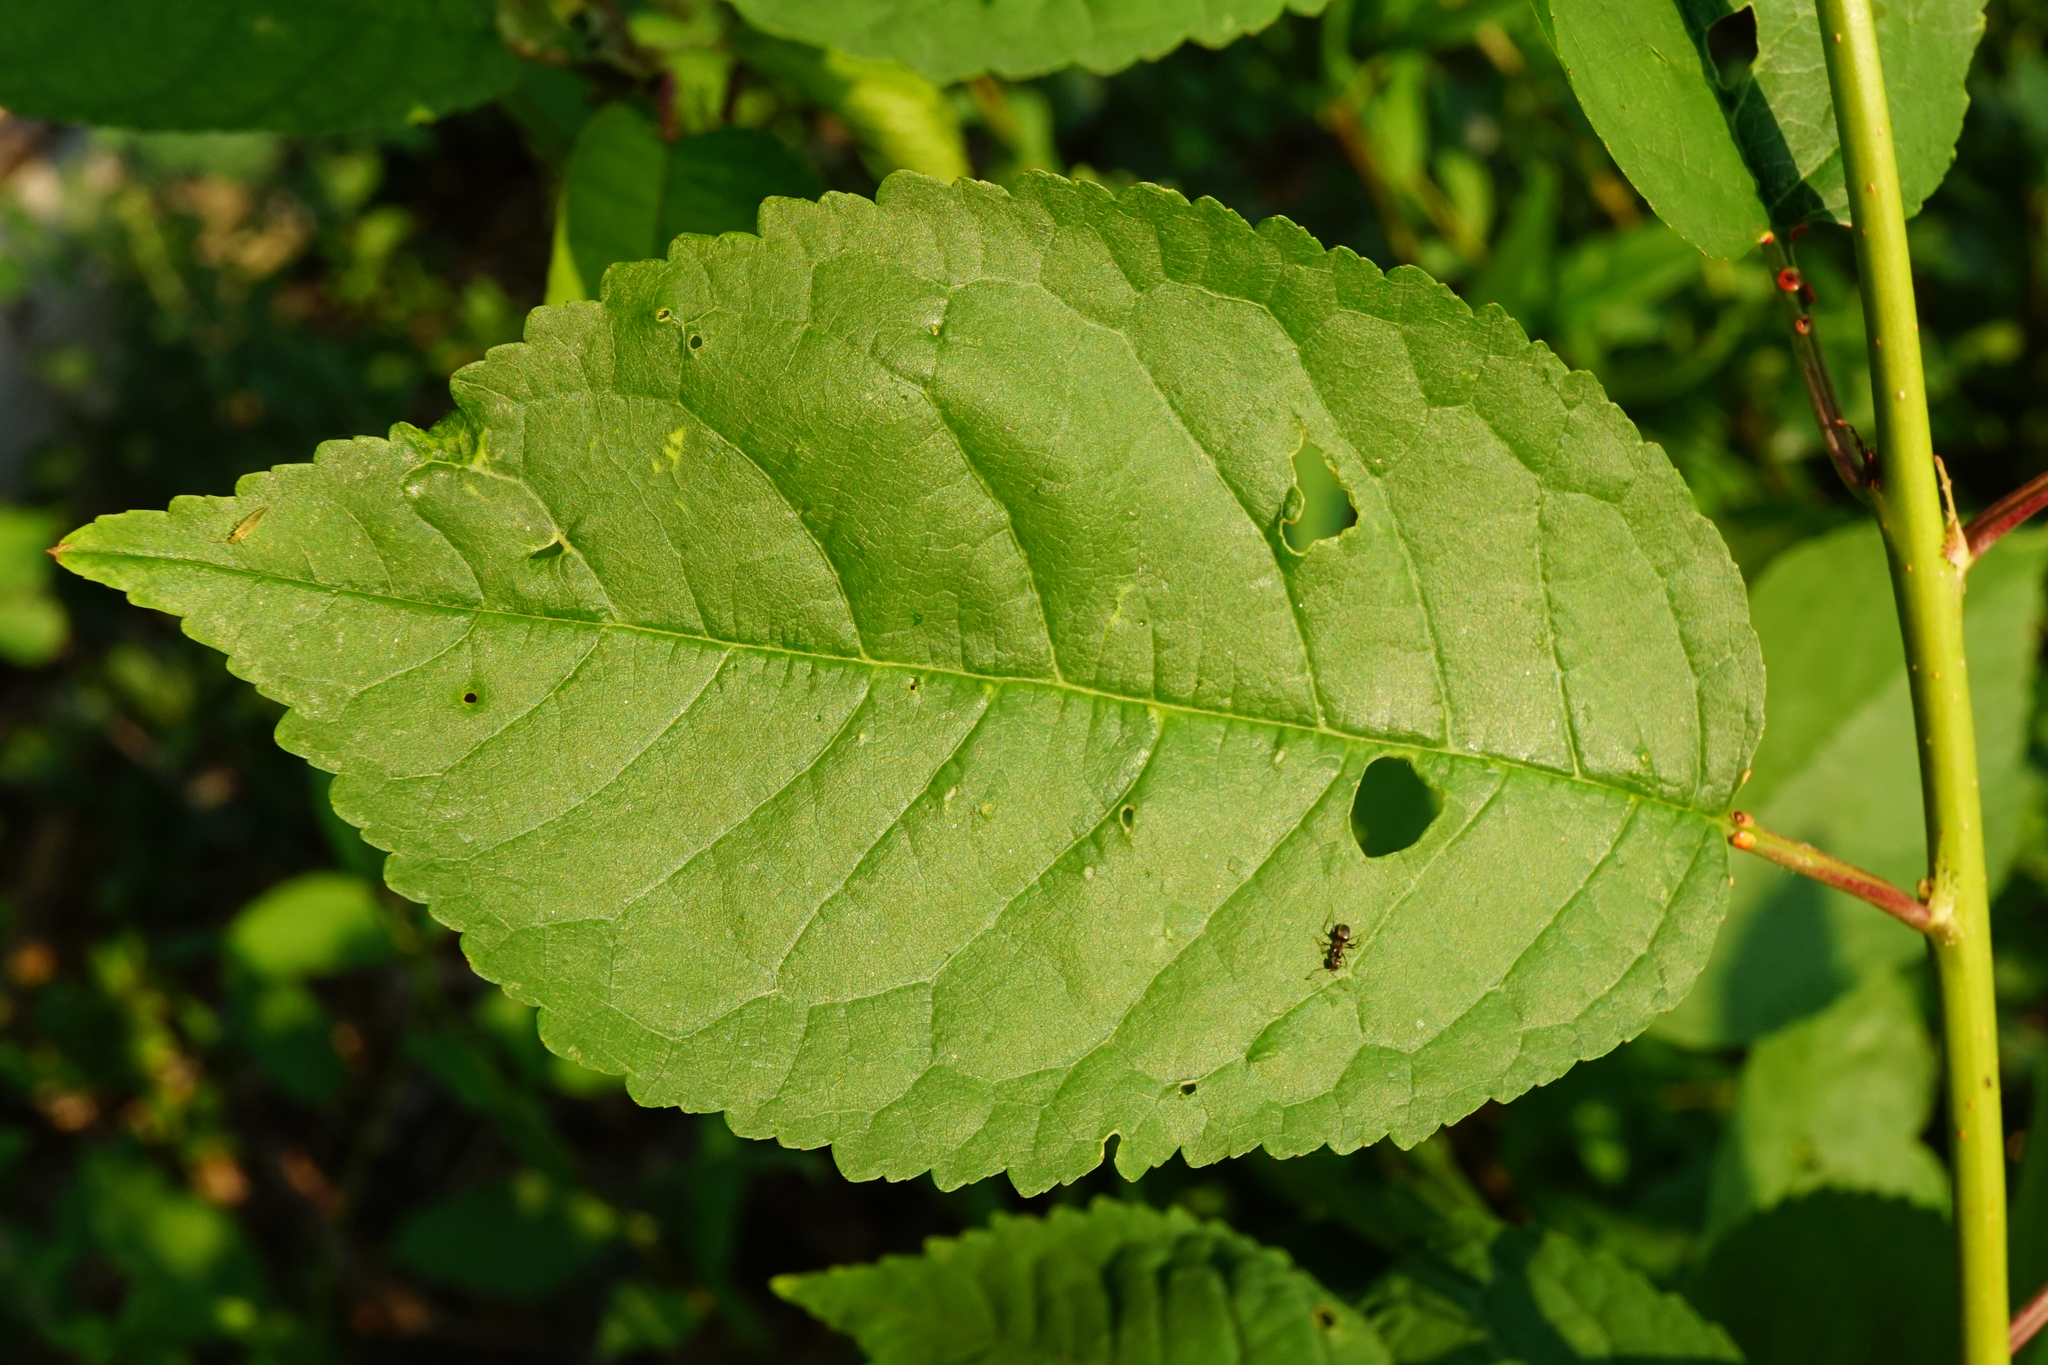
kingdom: Plantae
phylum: Tracheophyta
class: Magnoliopsida
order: Rosales
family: Rosaceae
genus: Prunus
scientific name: Prunus avium
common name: Sweet cherry
